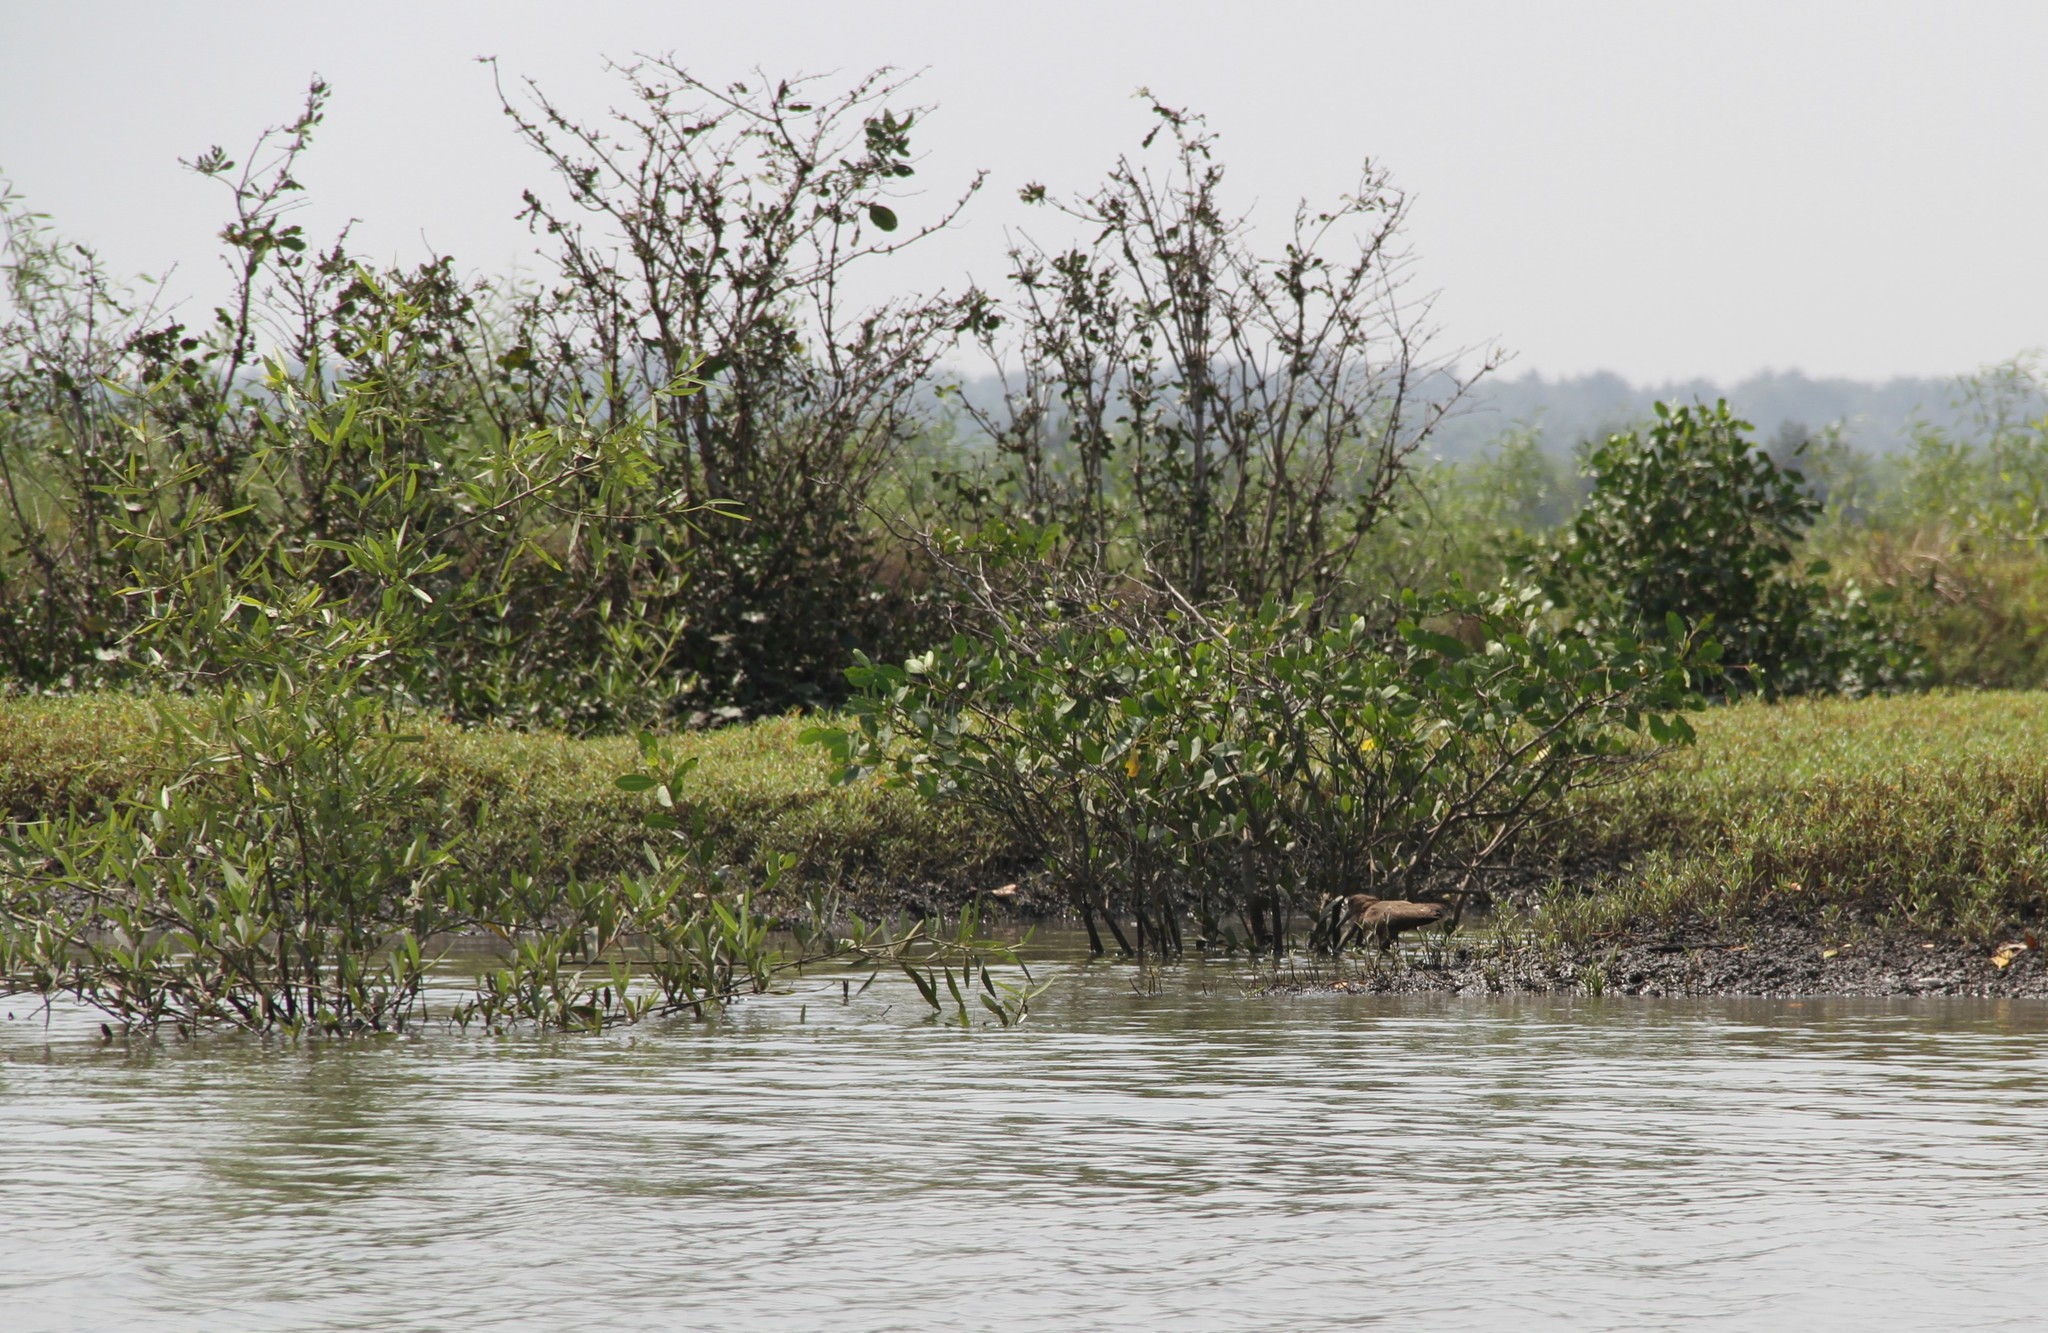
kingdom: Animalia
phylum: Chordata
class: Aves
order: Pelecaniformes
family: Scopidae
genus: Scopus
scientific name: Scopus umbretta
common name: Hamerkop
